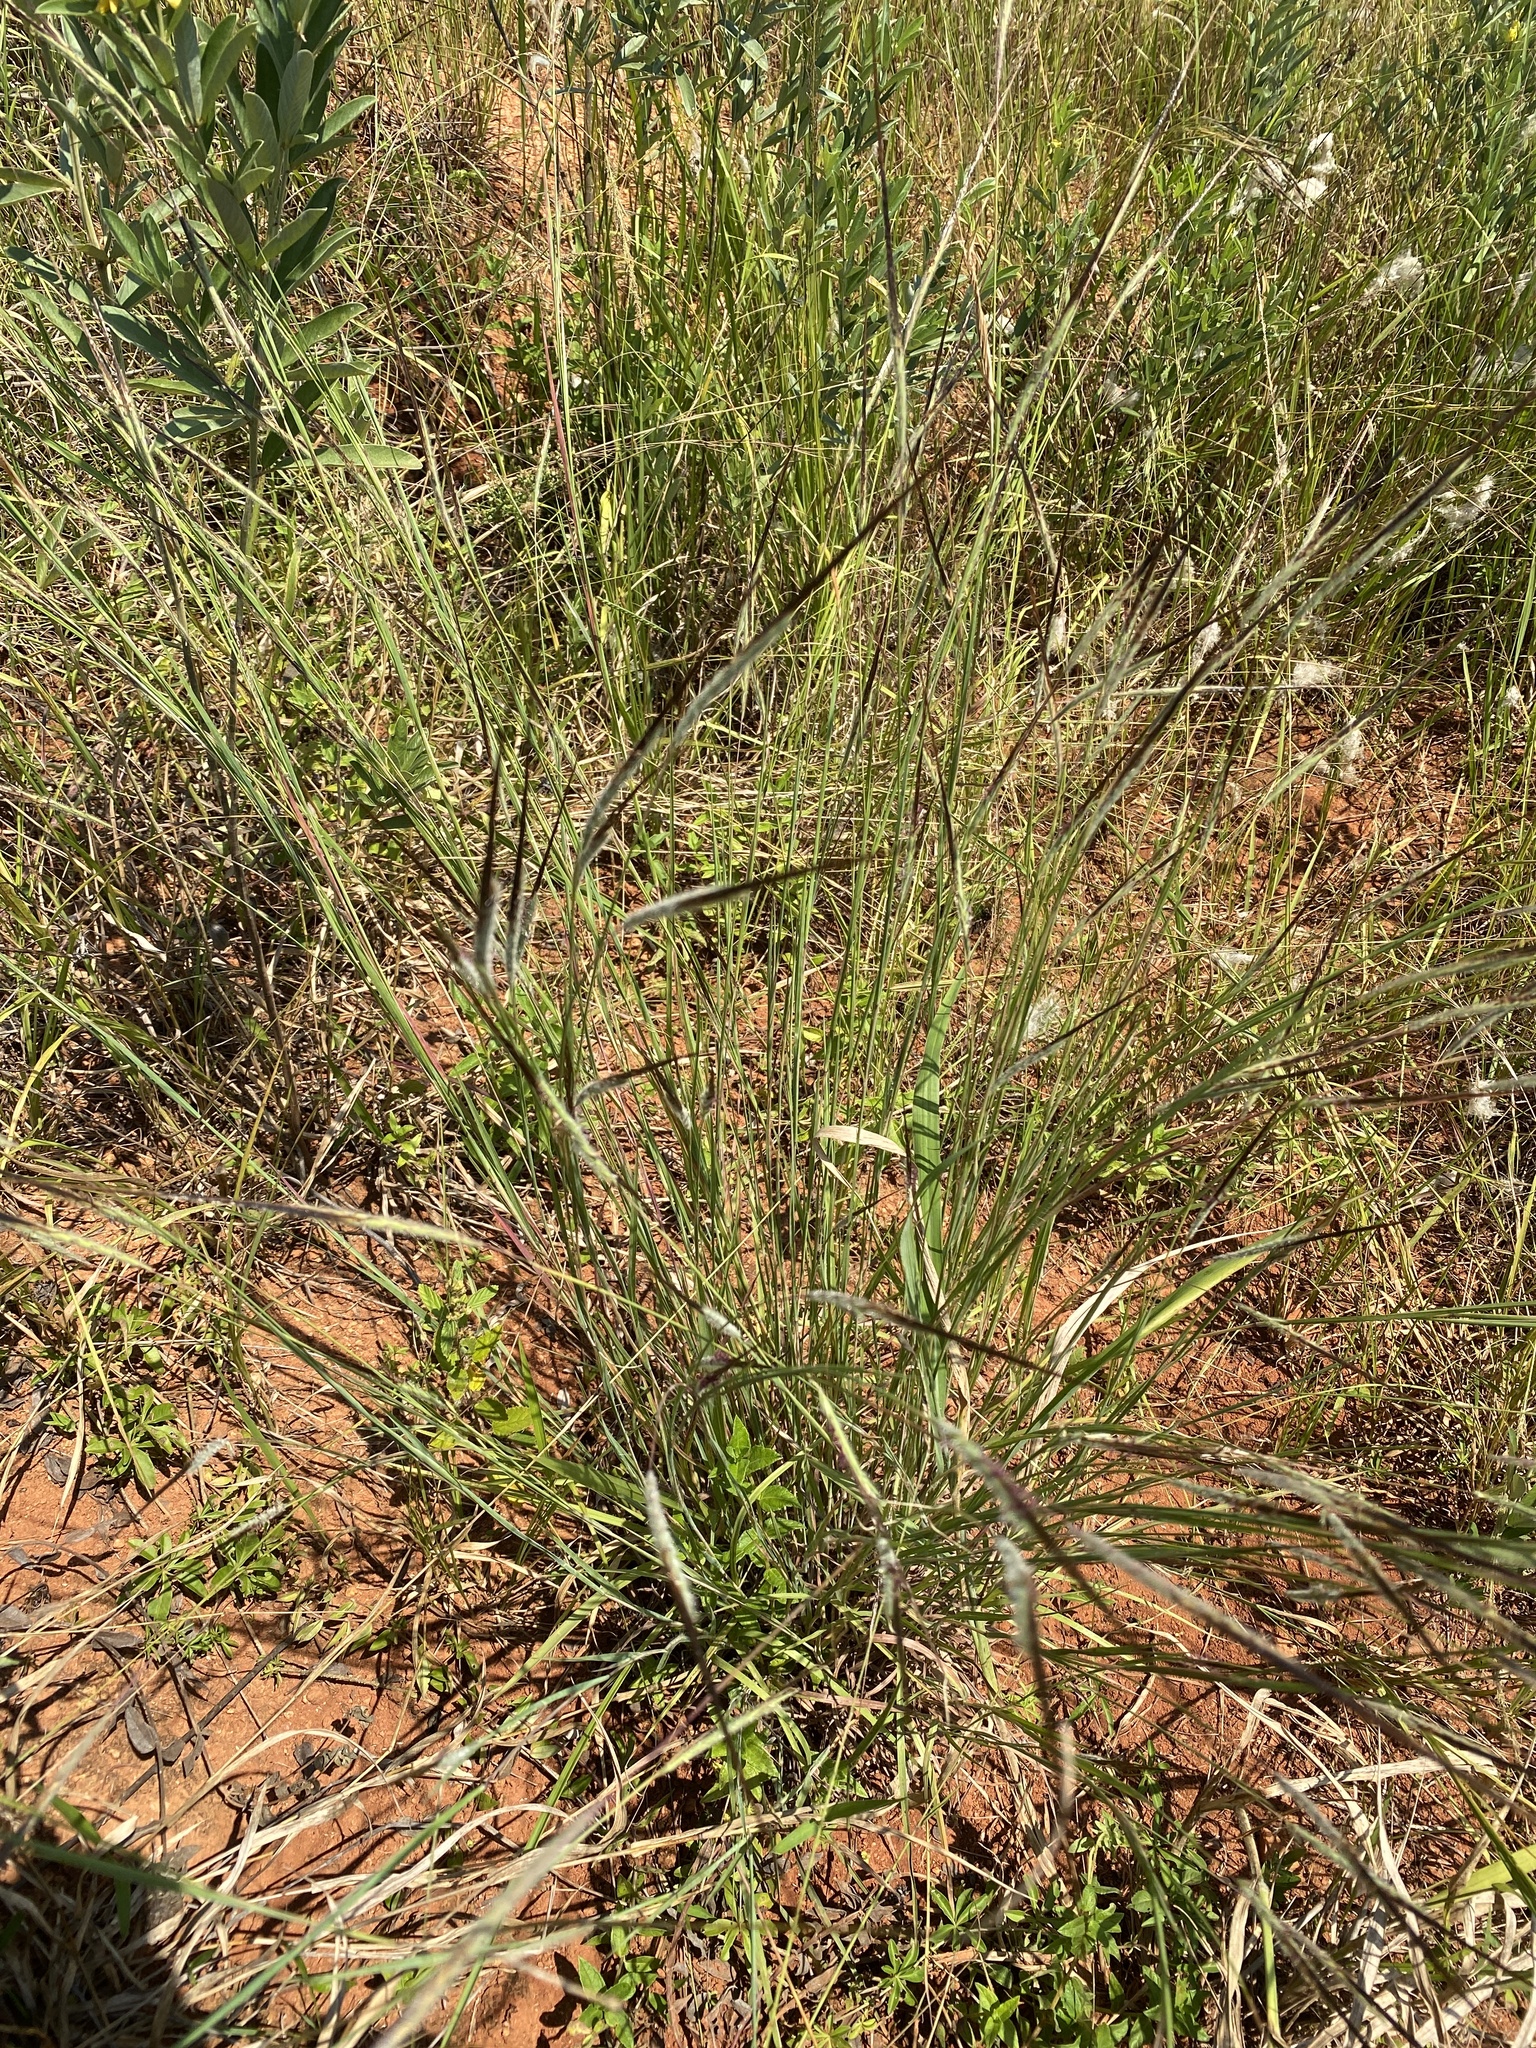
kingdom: Plantae
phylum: Tracheophyta
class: Liliopsida
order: Poales
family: Poaceae
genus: Heteropogon
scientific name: Heteropogon contortus
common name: Tanglehead
